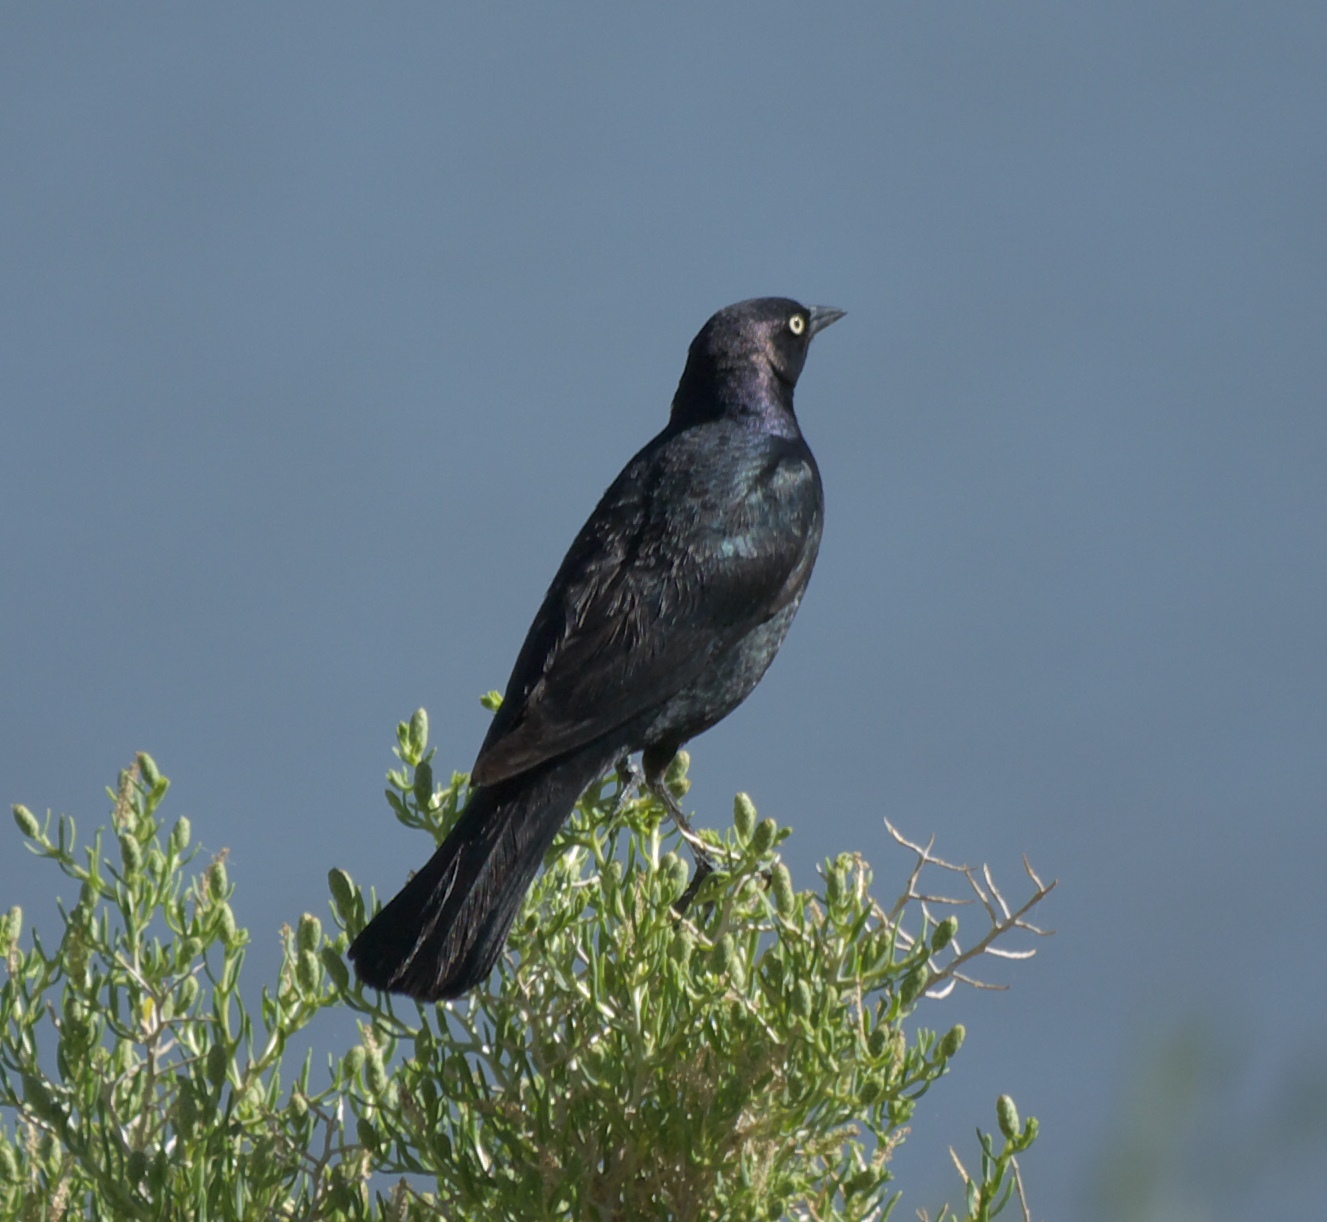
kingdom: Animalia
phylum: Chordata
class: Aves
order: Passeriformes
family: Icteridae
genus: Euphagus
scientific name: Euphagus cyanocephalus
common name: Brewer's blackbird
